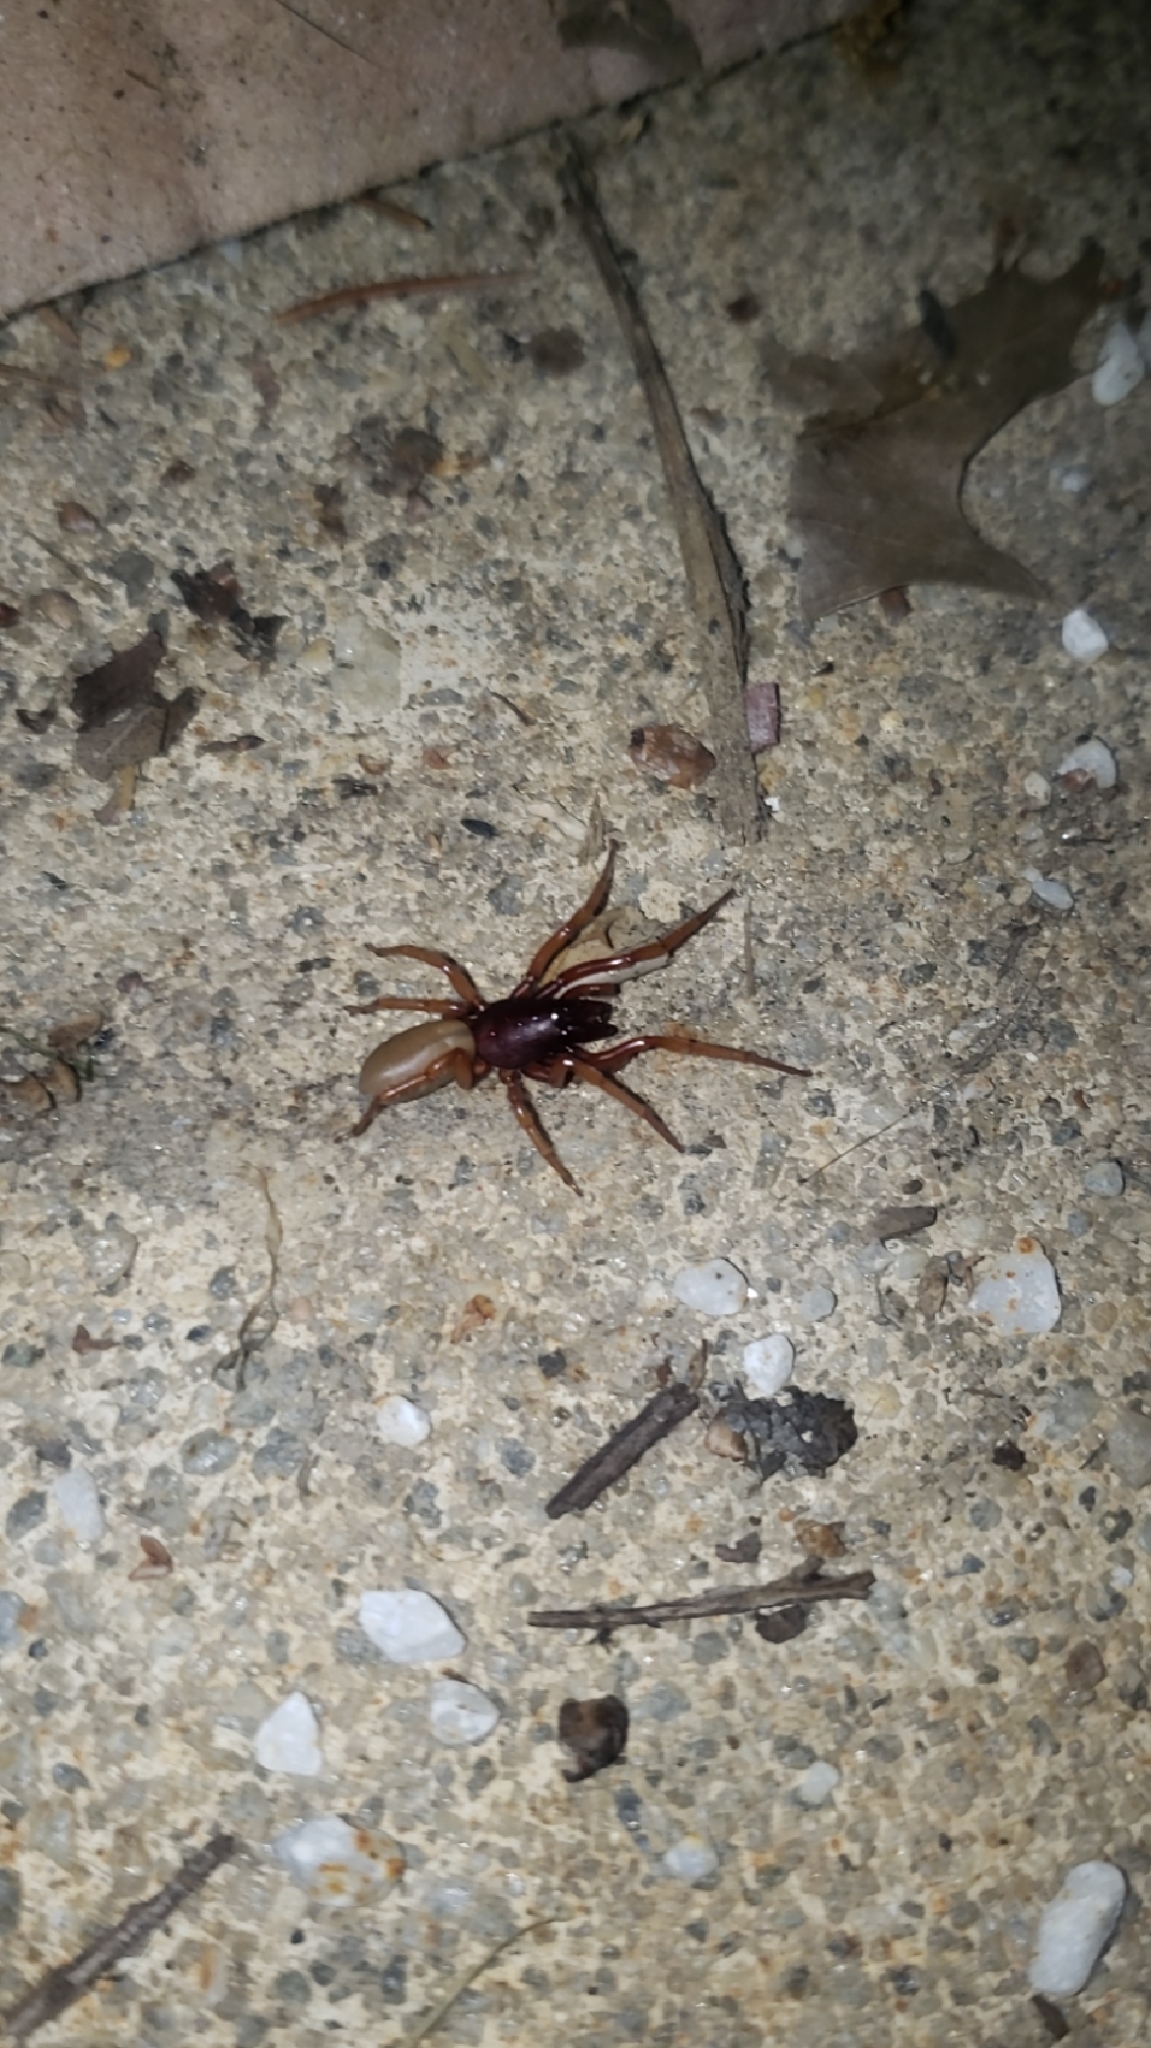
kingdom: Animalia
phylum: Arthropoda
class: Arachnida
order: Araneae
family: Dysderidae
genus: Dysdera
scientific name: Dysdera crocata
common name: Woodlouse spider
